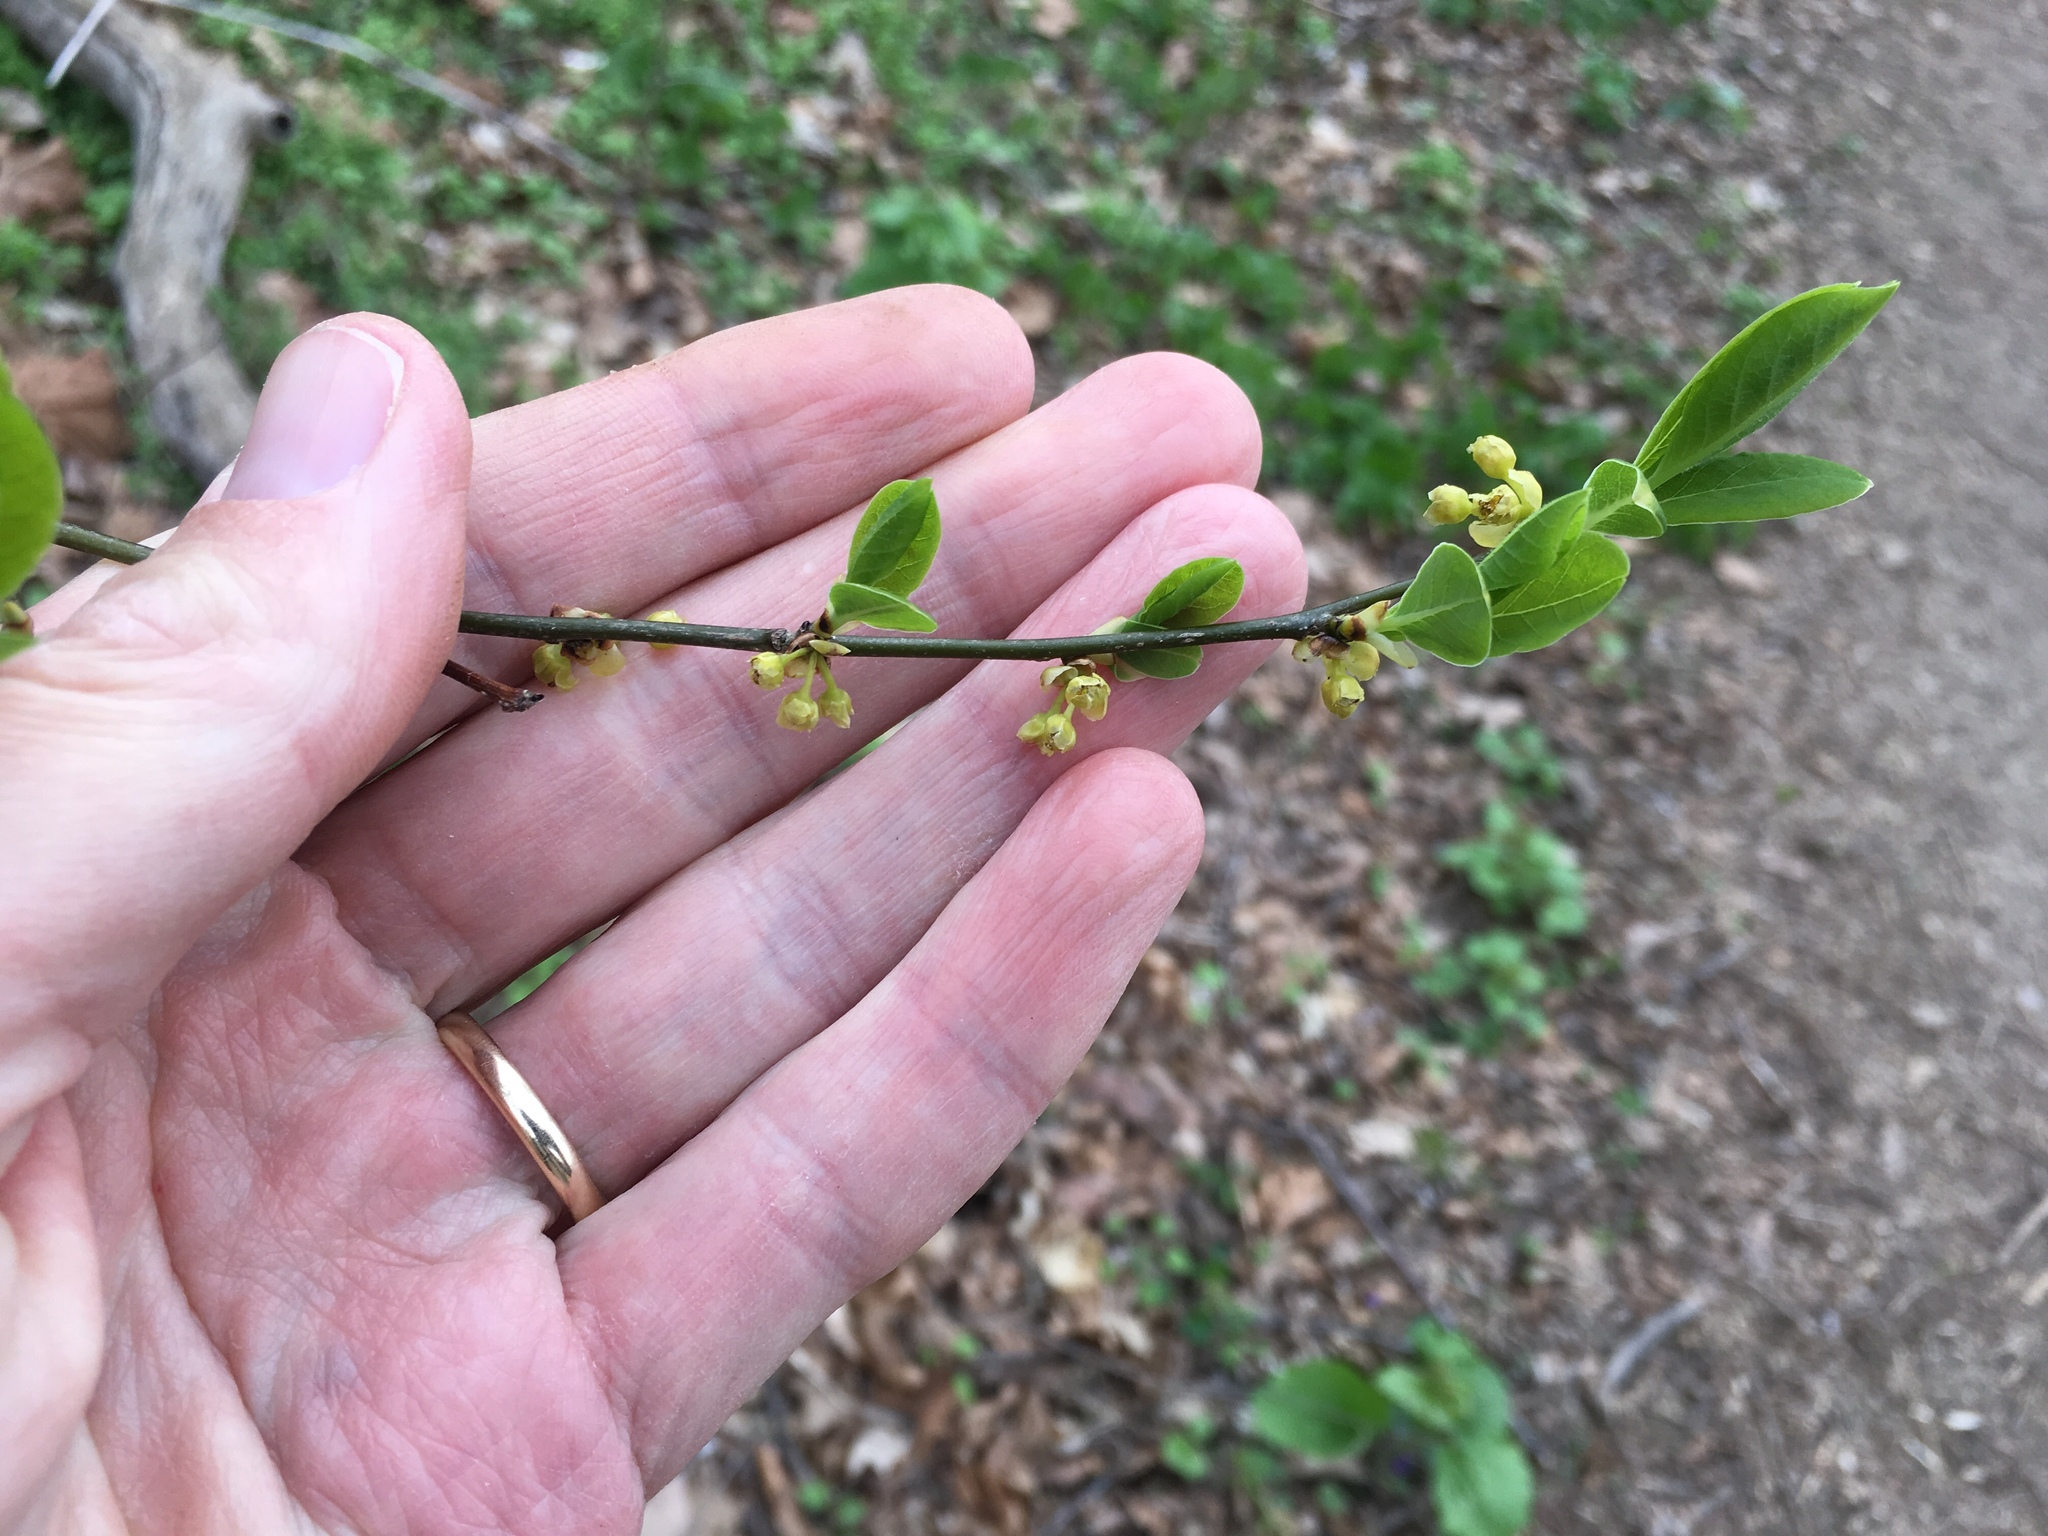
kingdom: Plantae
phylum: Tracheophyta
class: Magnoliopsida
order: Laurales
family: Lauraceae
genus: Lindera
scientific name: Lindera benzoin
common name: Spicebush
